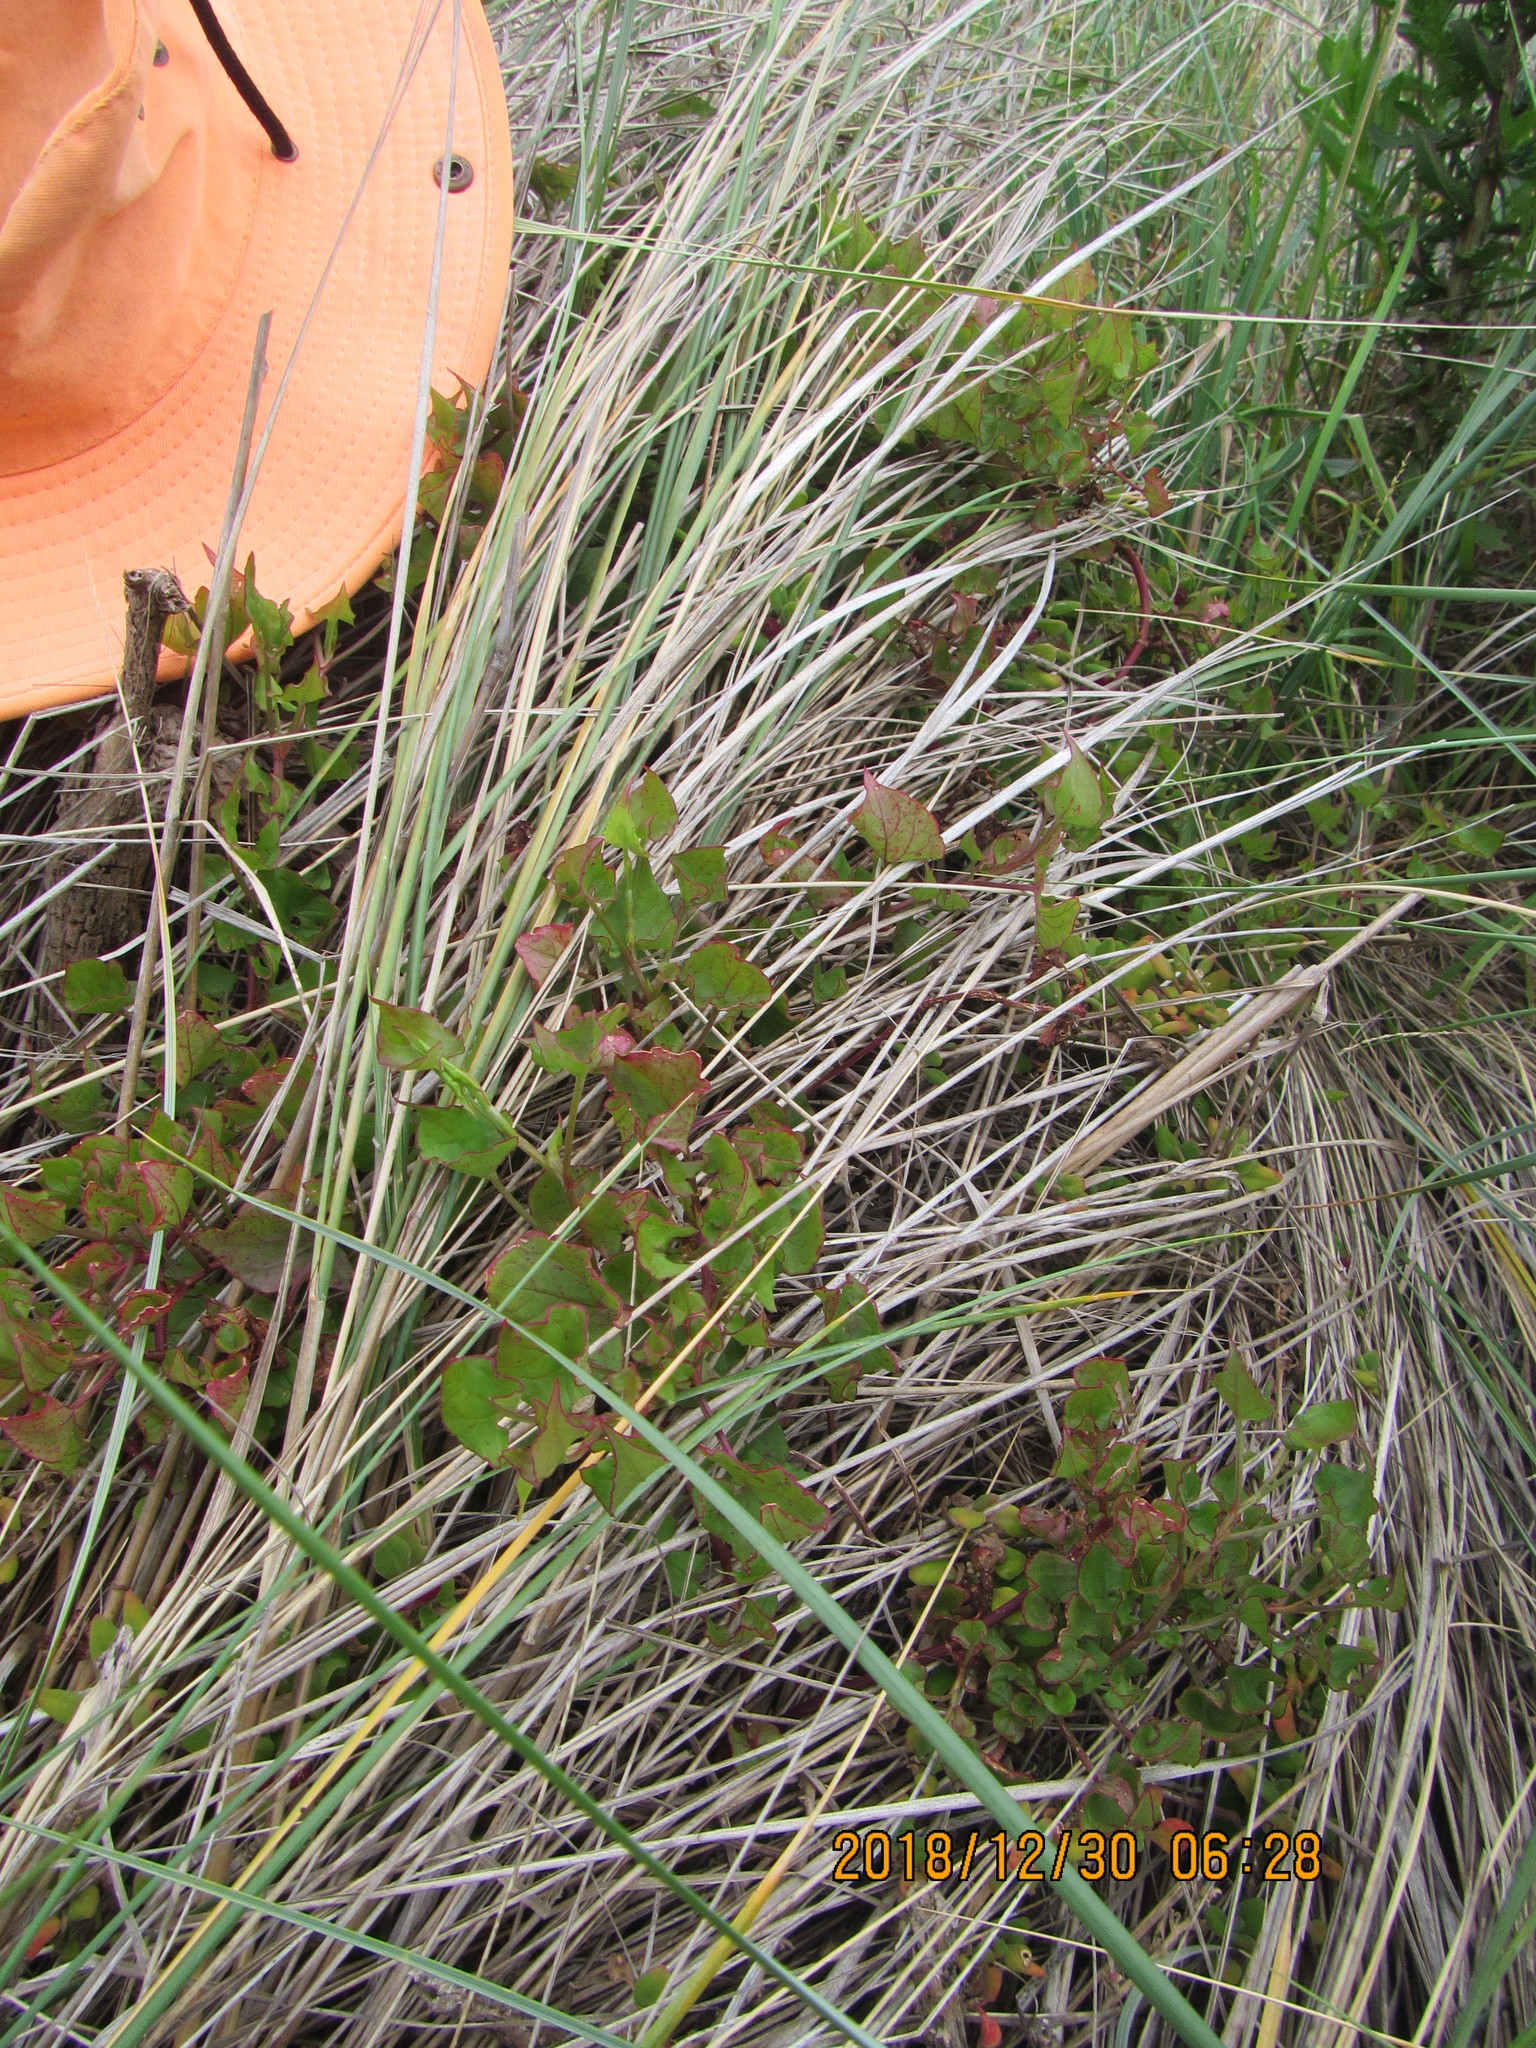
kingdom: Plantae
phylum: Tracheophyta
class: Magnoliopsida
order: Caryophyllales
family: Polygonaceae
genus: Rumex
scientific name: Rumex sagittatus
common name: Climbing dock
